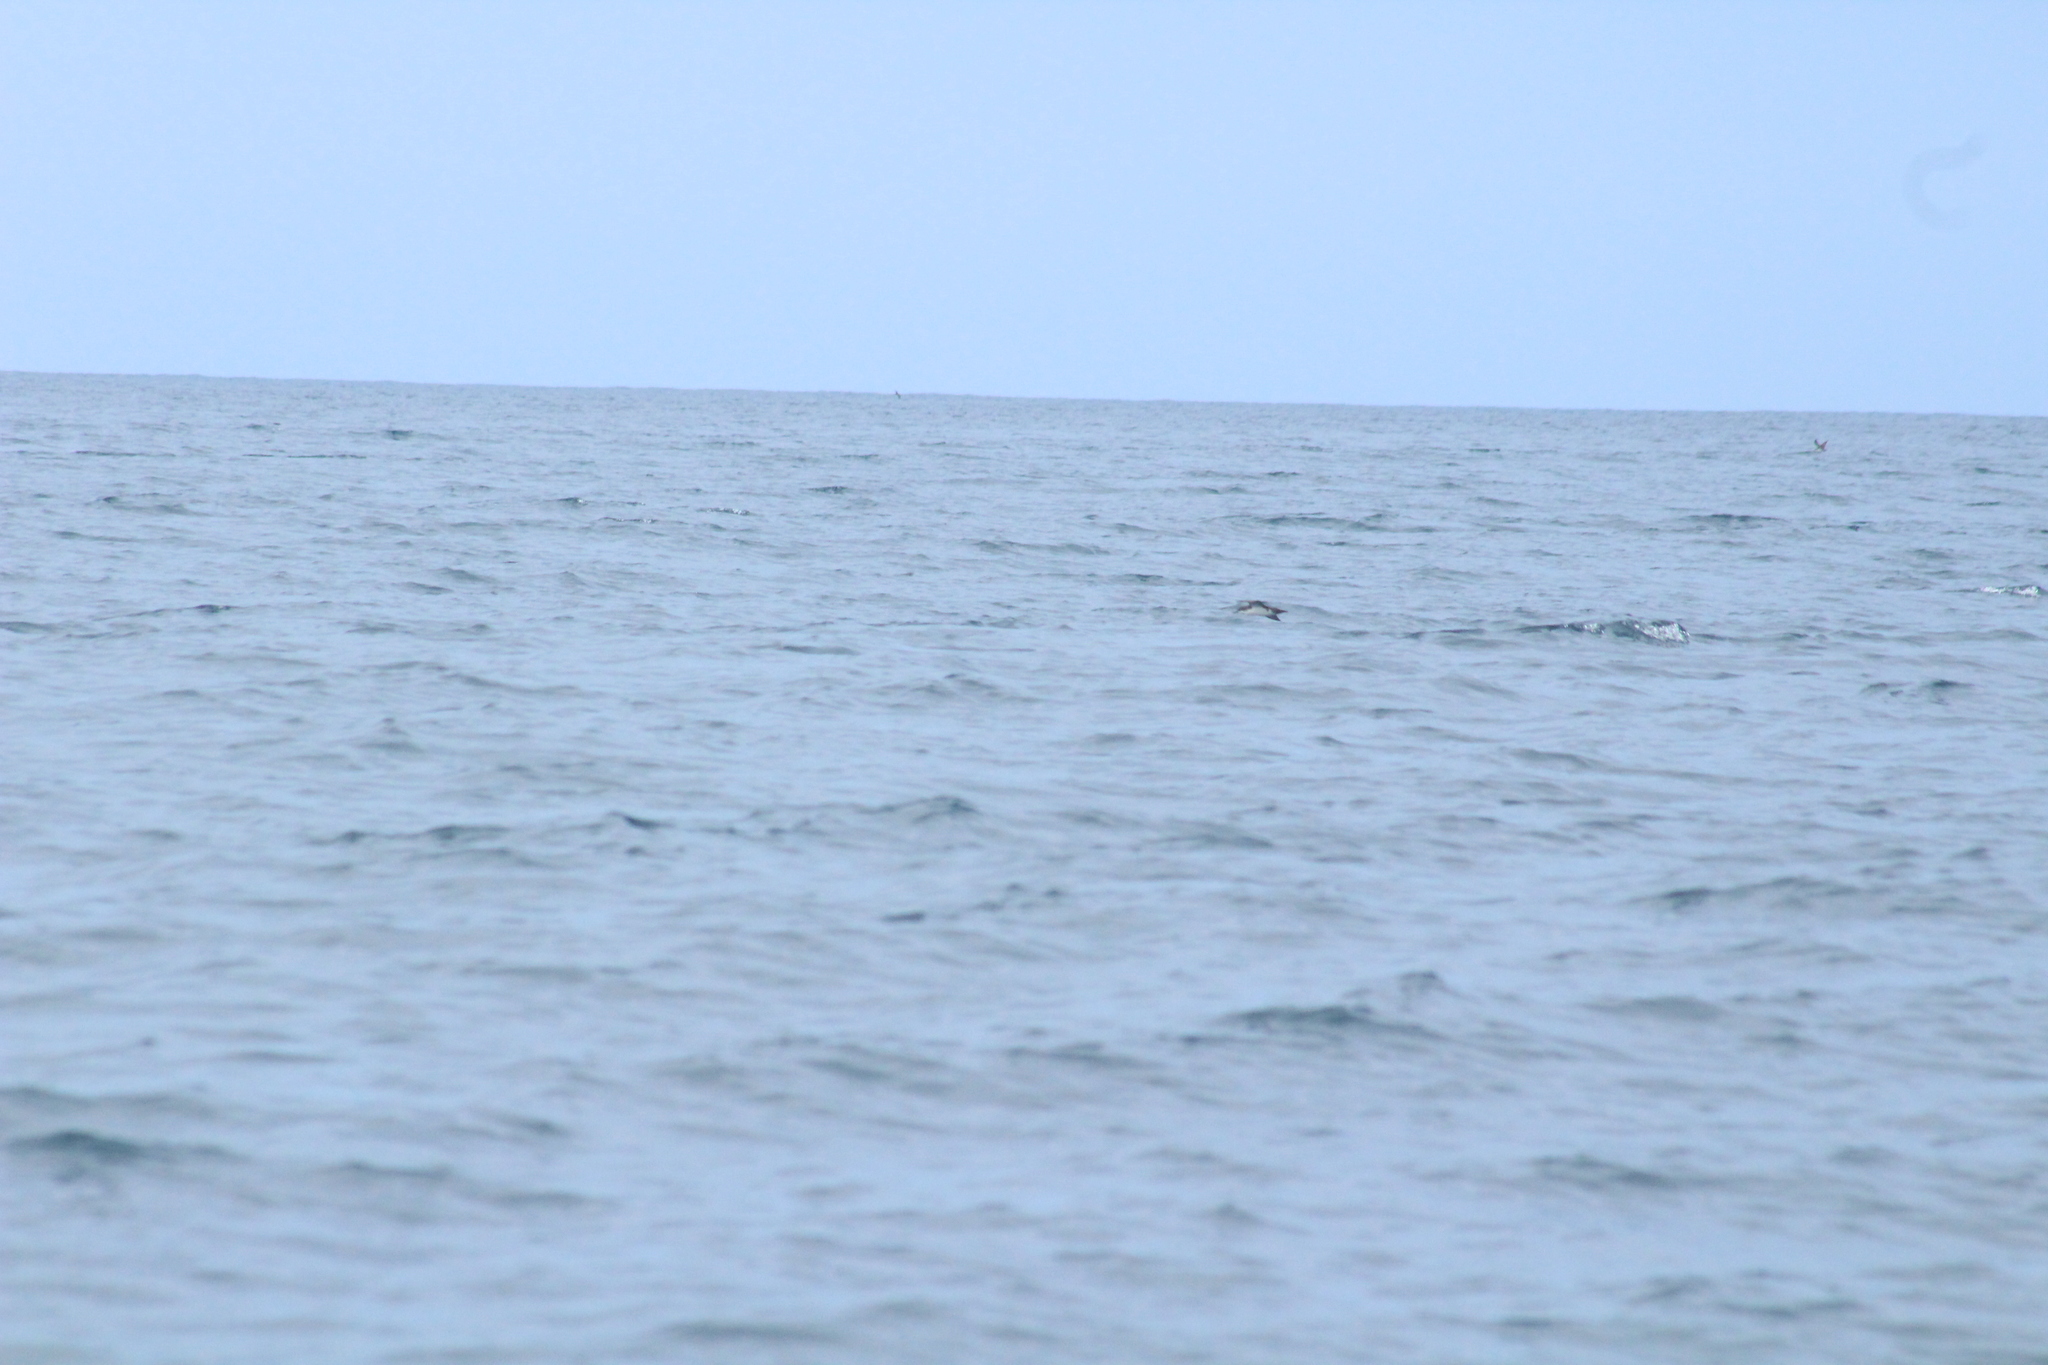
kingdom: Animalia
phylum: Chordata
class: Aves
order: Procellariiformes
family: Procellariidae
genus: Puffinus
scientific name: Puffinus subalaris
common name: Galapagos shearwater
